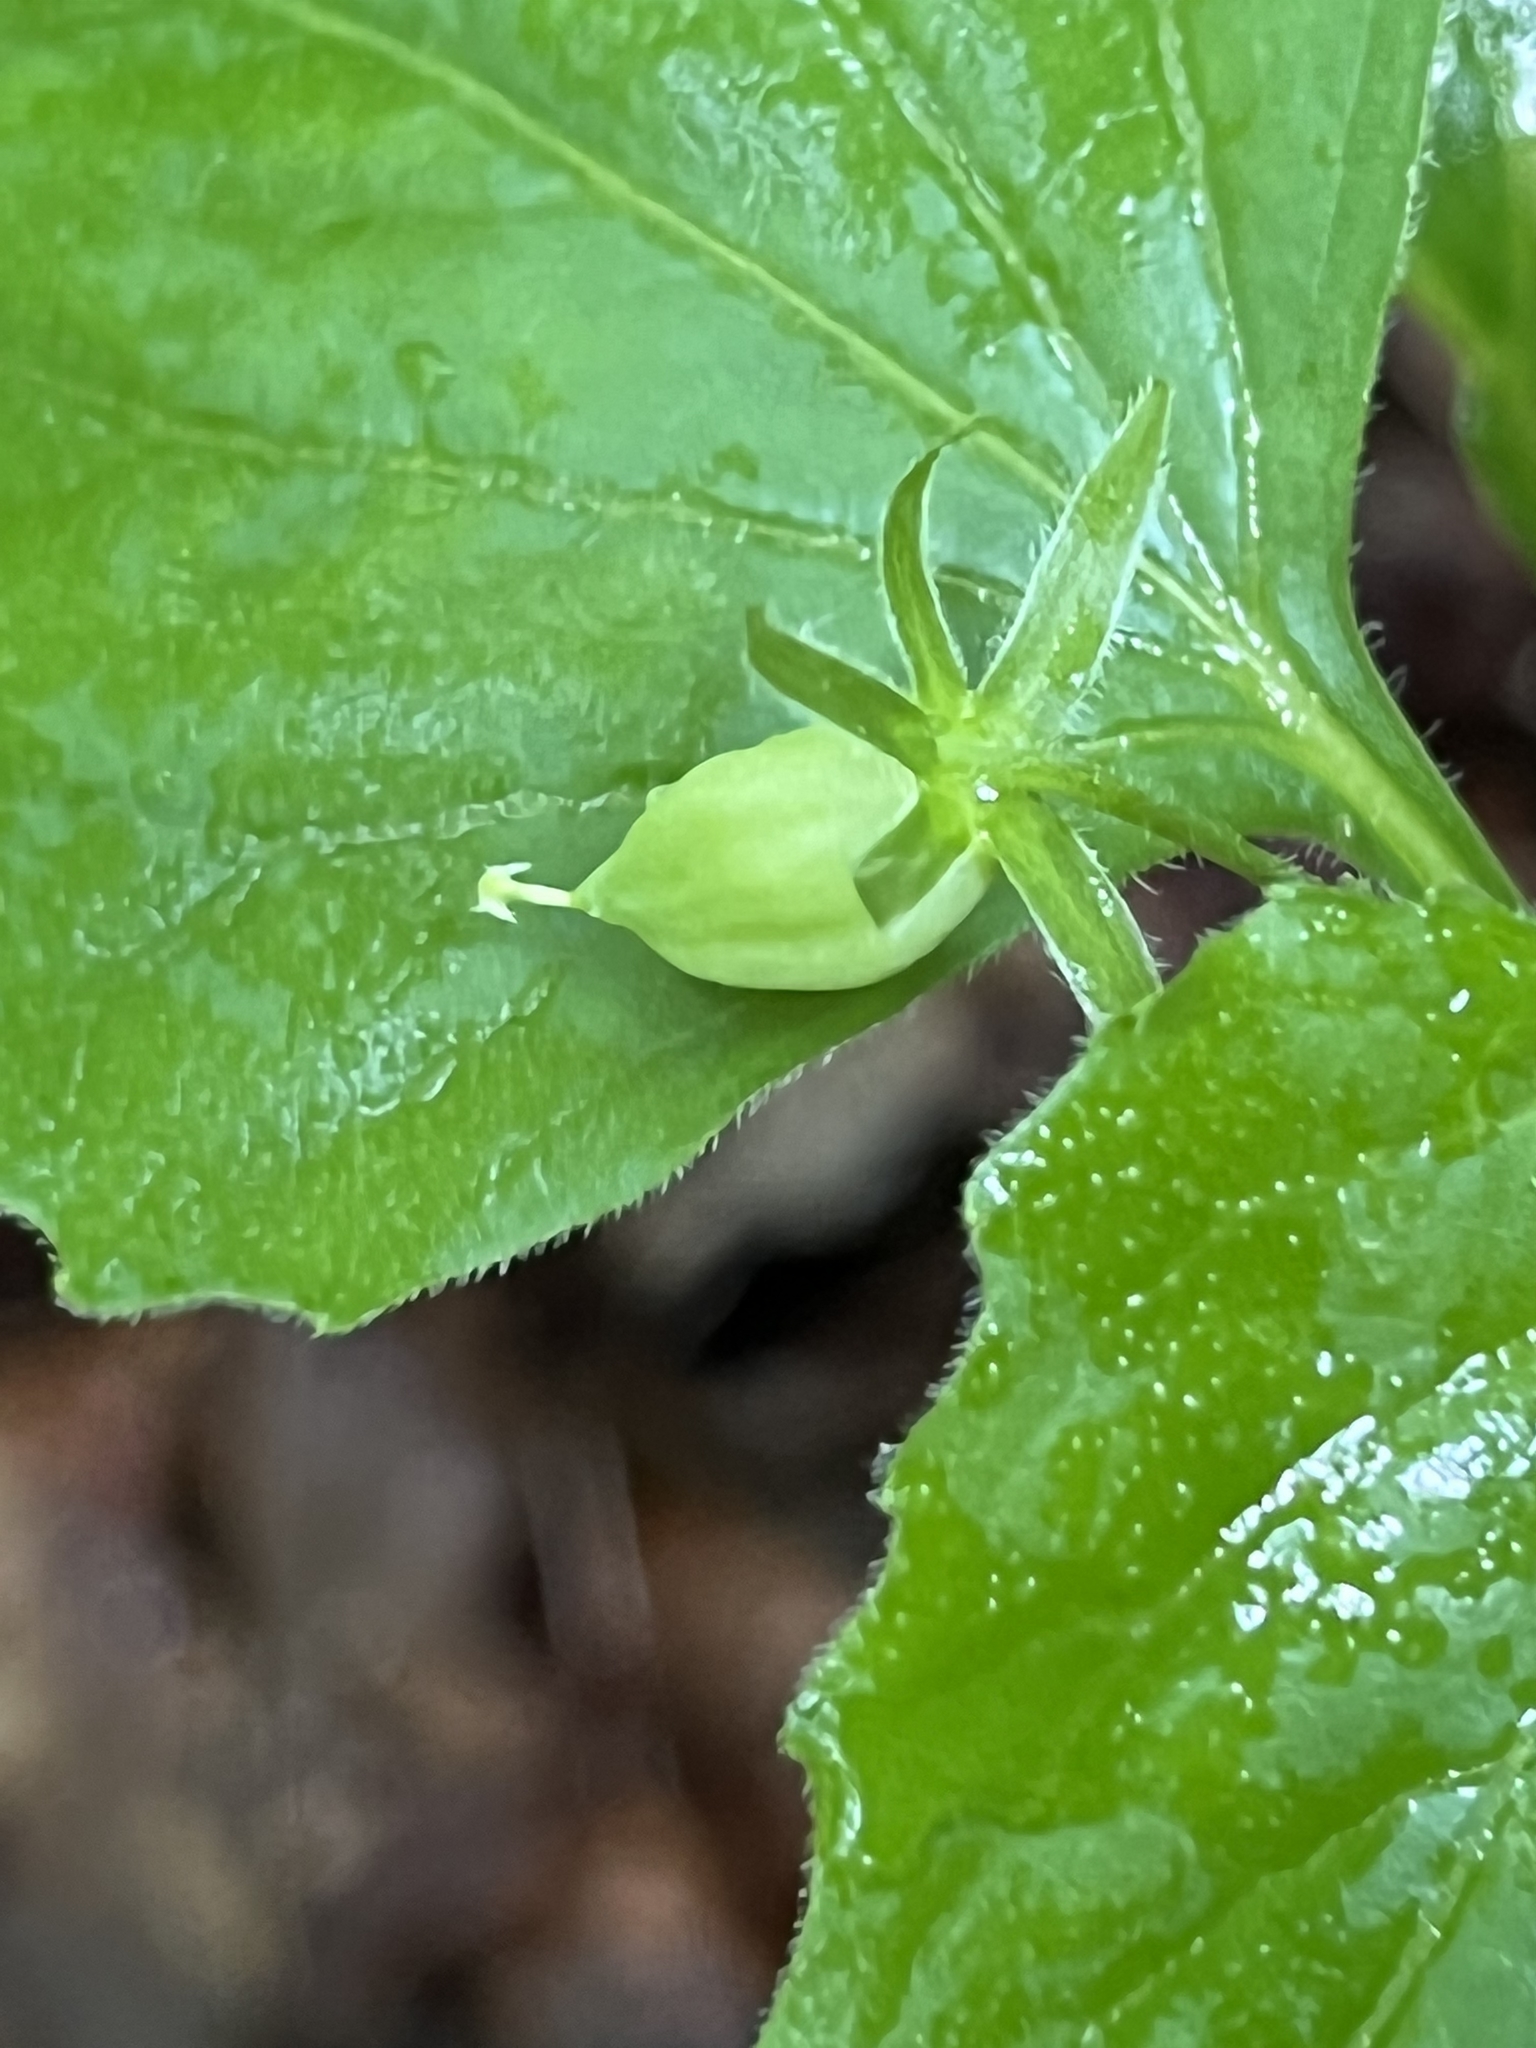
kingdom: Plantae
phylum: Tracheophyta
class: Magnoliopsida
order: Malpighiales
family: Violaceae
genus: Viola
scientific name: Viola glaberrima
